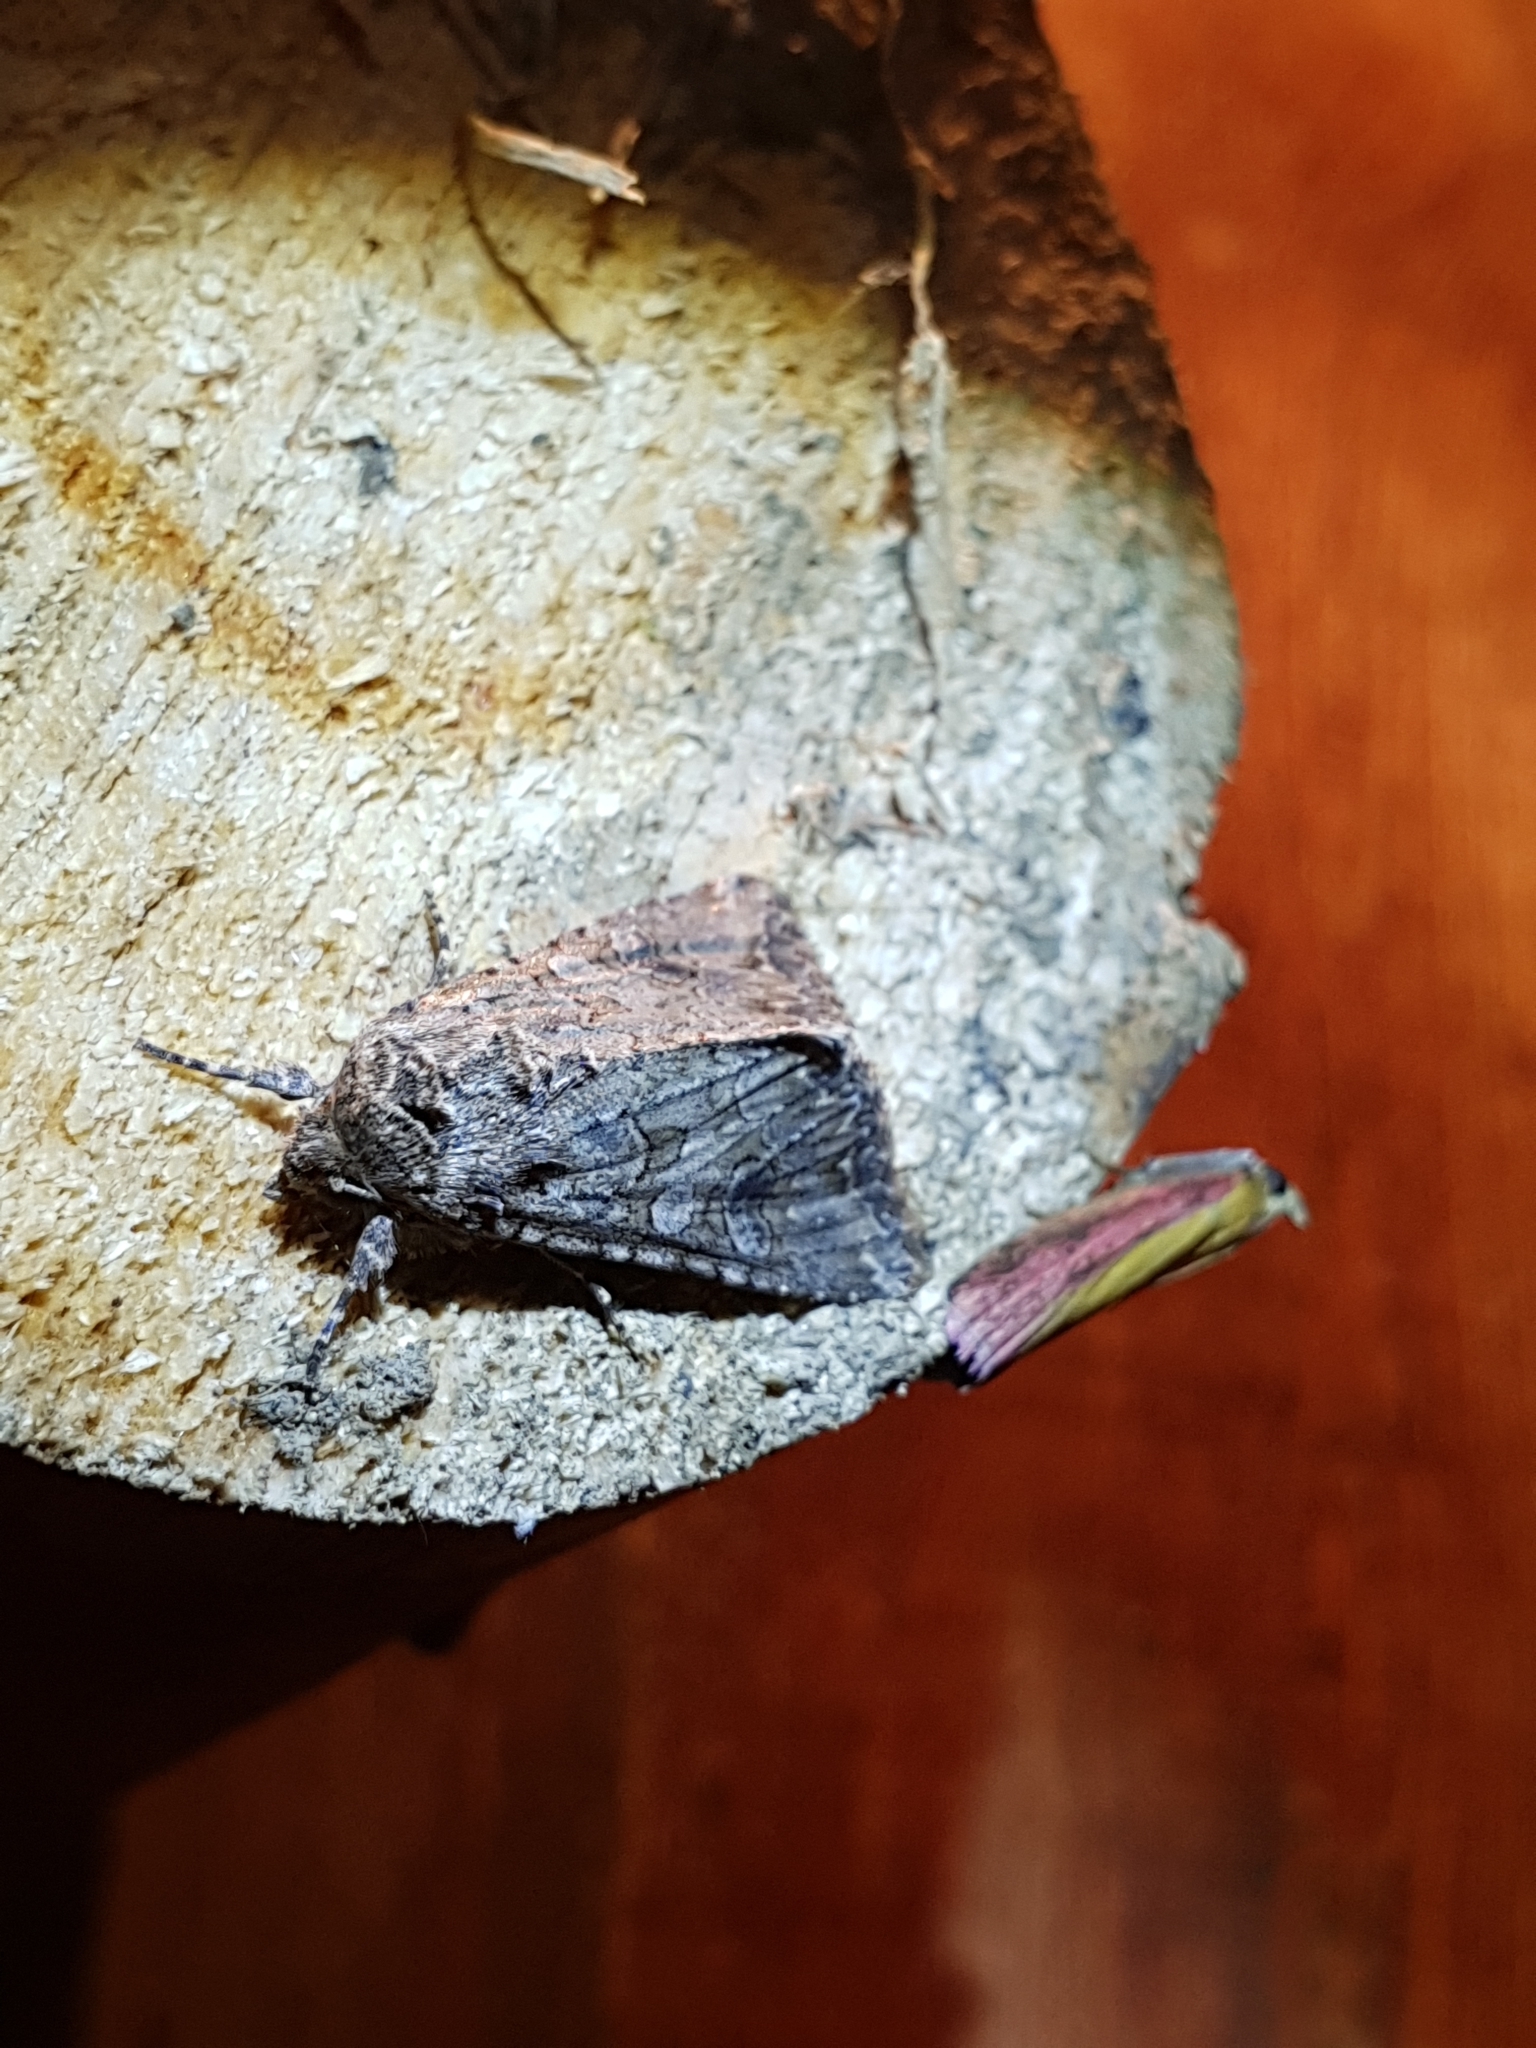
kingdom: Animalia
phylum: Arthropoda
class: Insecta
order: Lepidoptera
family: Noctuidae
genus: Anarta
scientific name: Anarta trifolii
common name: Clover cutworm moth
